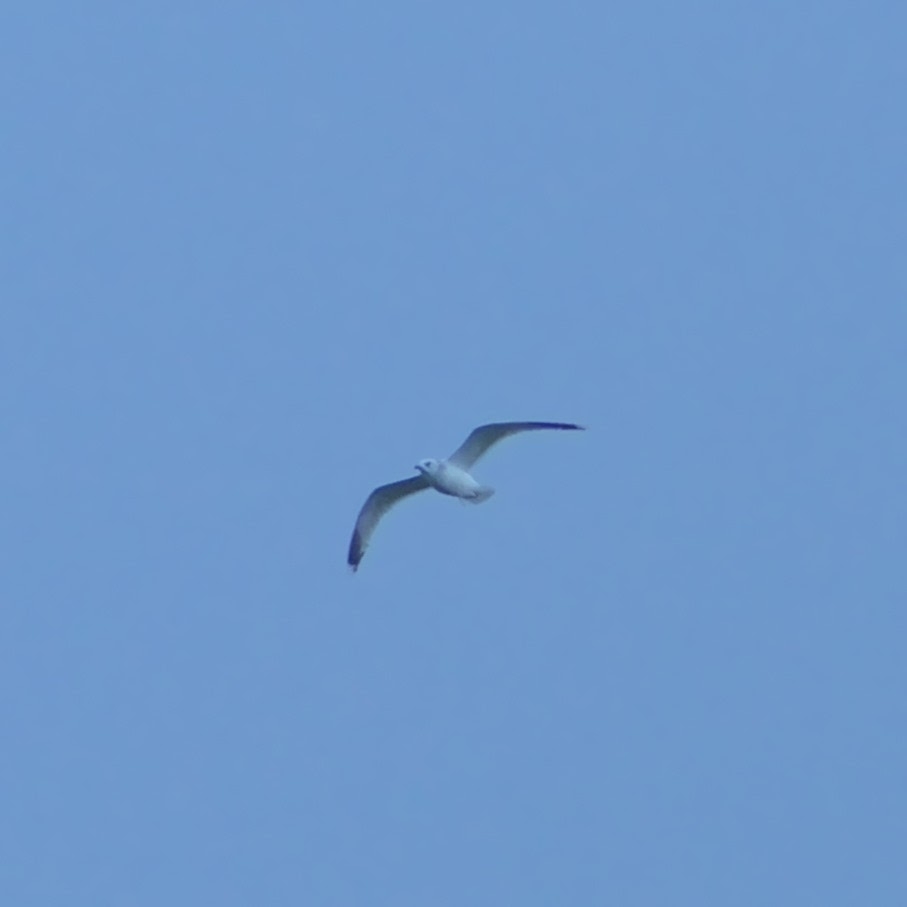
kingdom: Animalia
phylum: Chordata
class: Aves
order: Charadriiformes
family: Laridae
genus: Larus
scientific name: Larus canus
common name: Mew gull
